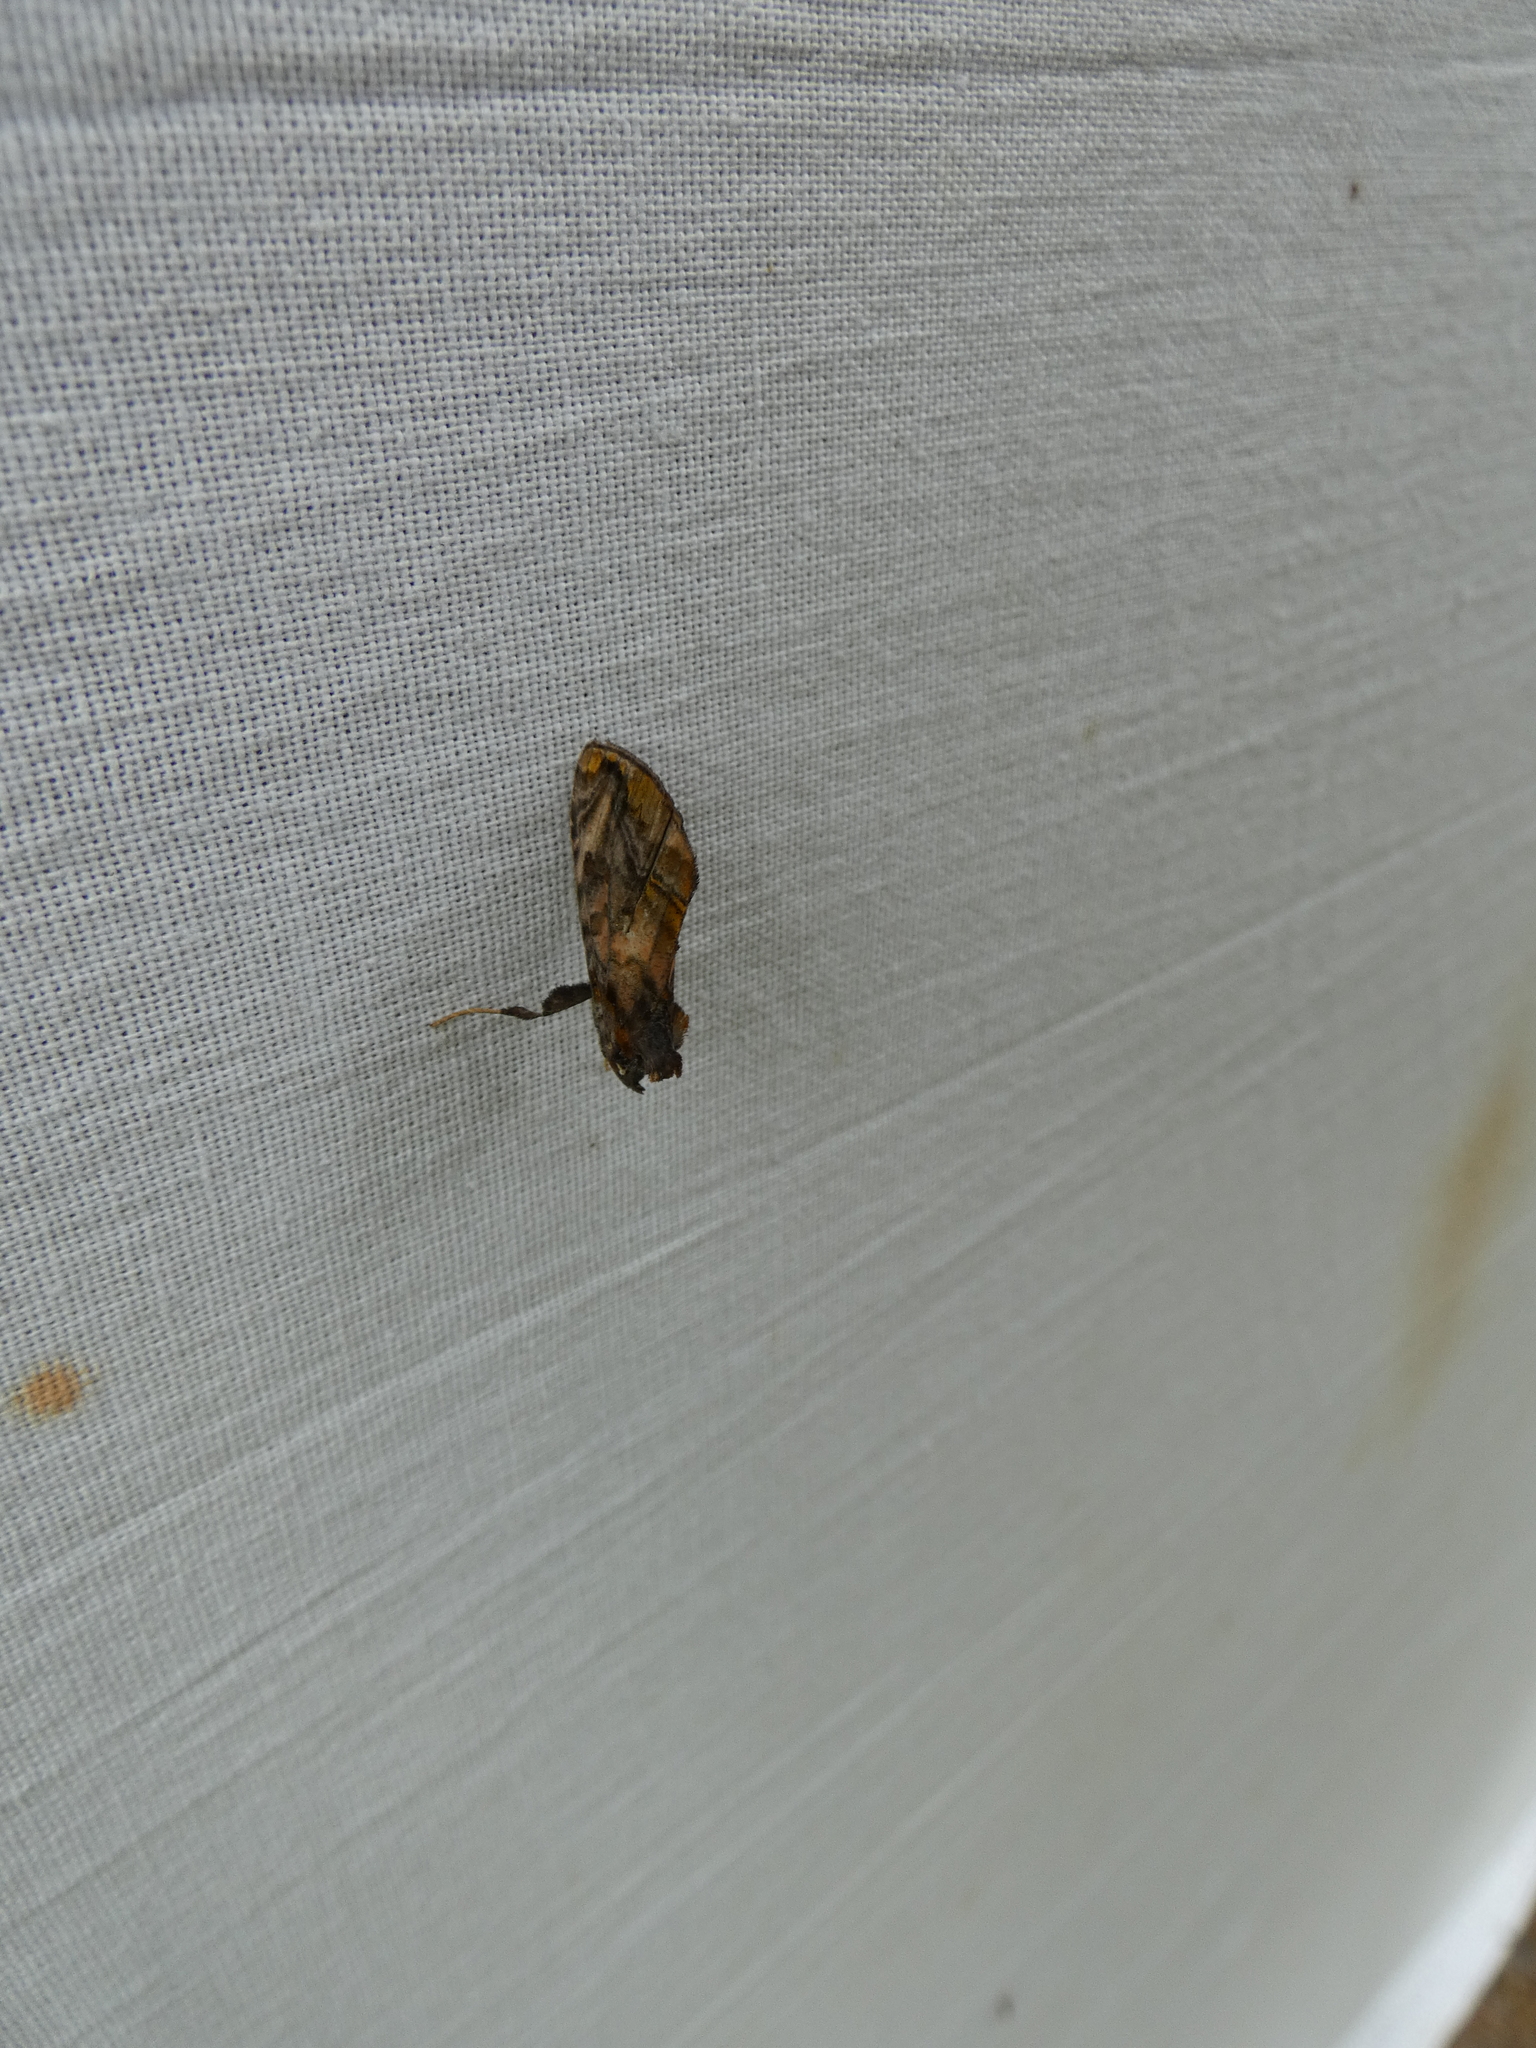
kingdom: Animalia
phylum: Arthropoda
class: Insecta
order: Lepidoptera
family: Noctuidae
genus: Lamprotes
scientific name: Lamprotes caureum
